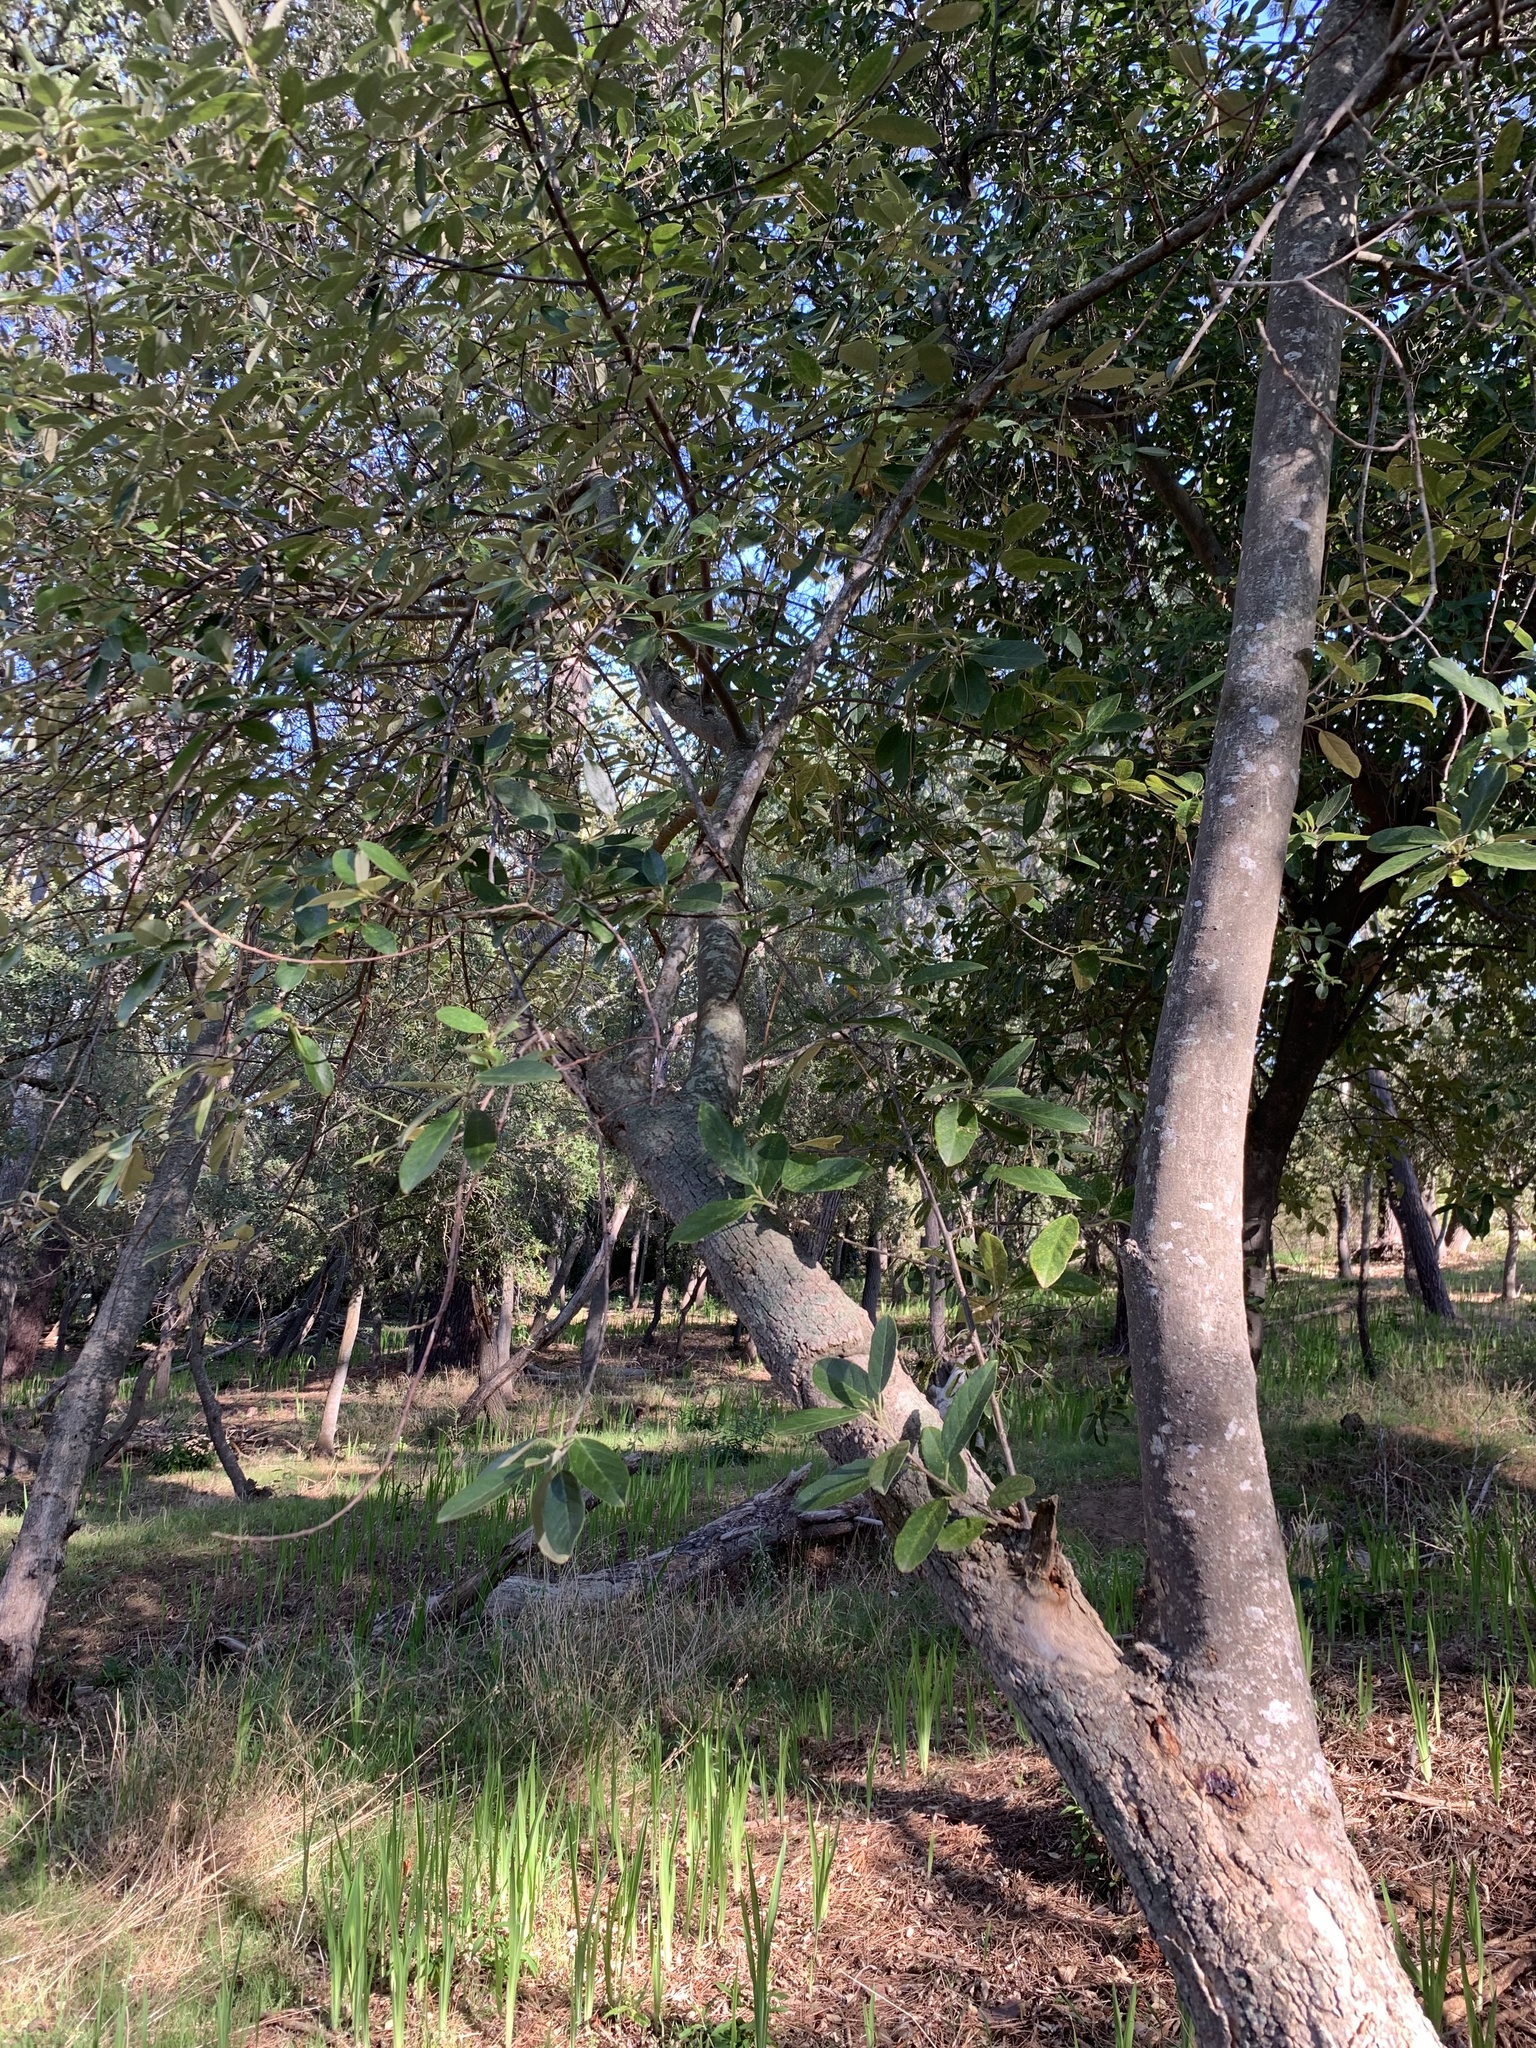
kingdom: Plantae
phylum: Tracheophyta
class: Magnoliopsida
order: Malpighiales
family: Achariaceae
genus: Kiggelaria
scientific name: Kiggelaria africana
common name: Wild peach
